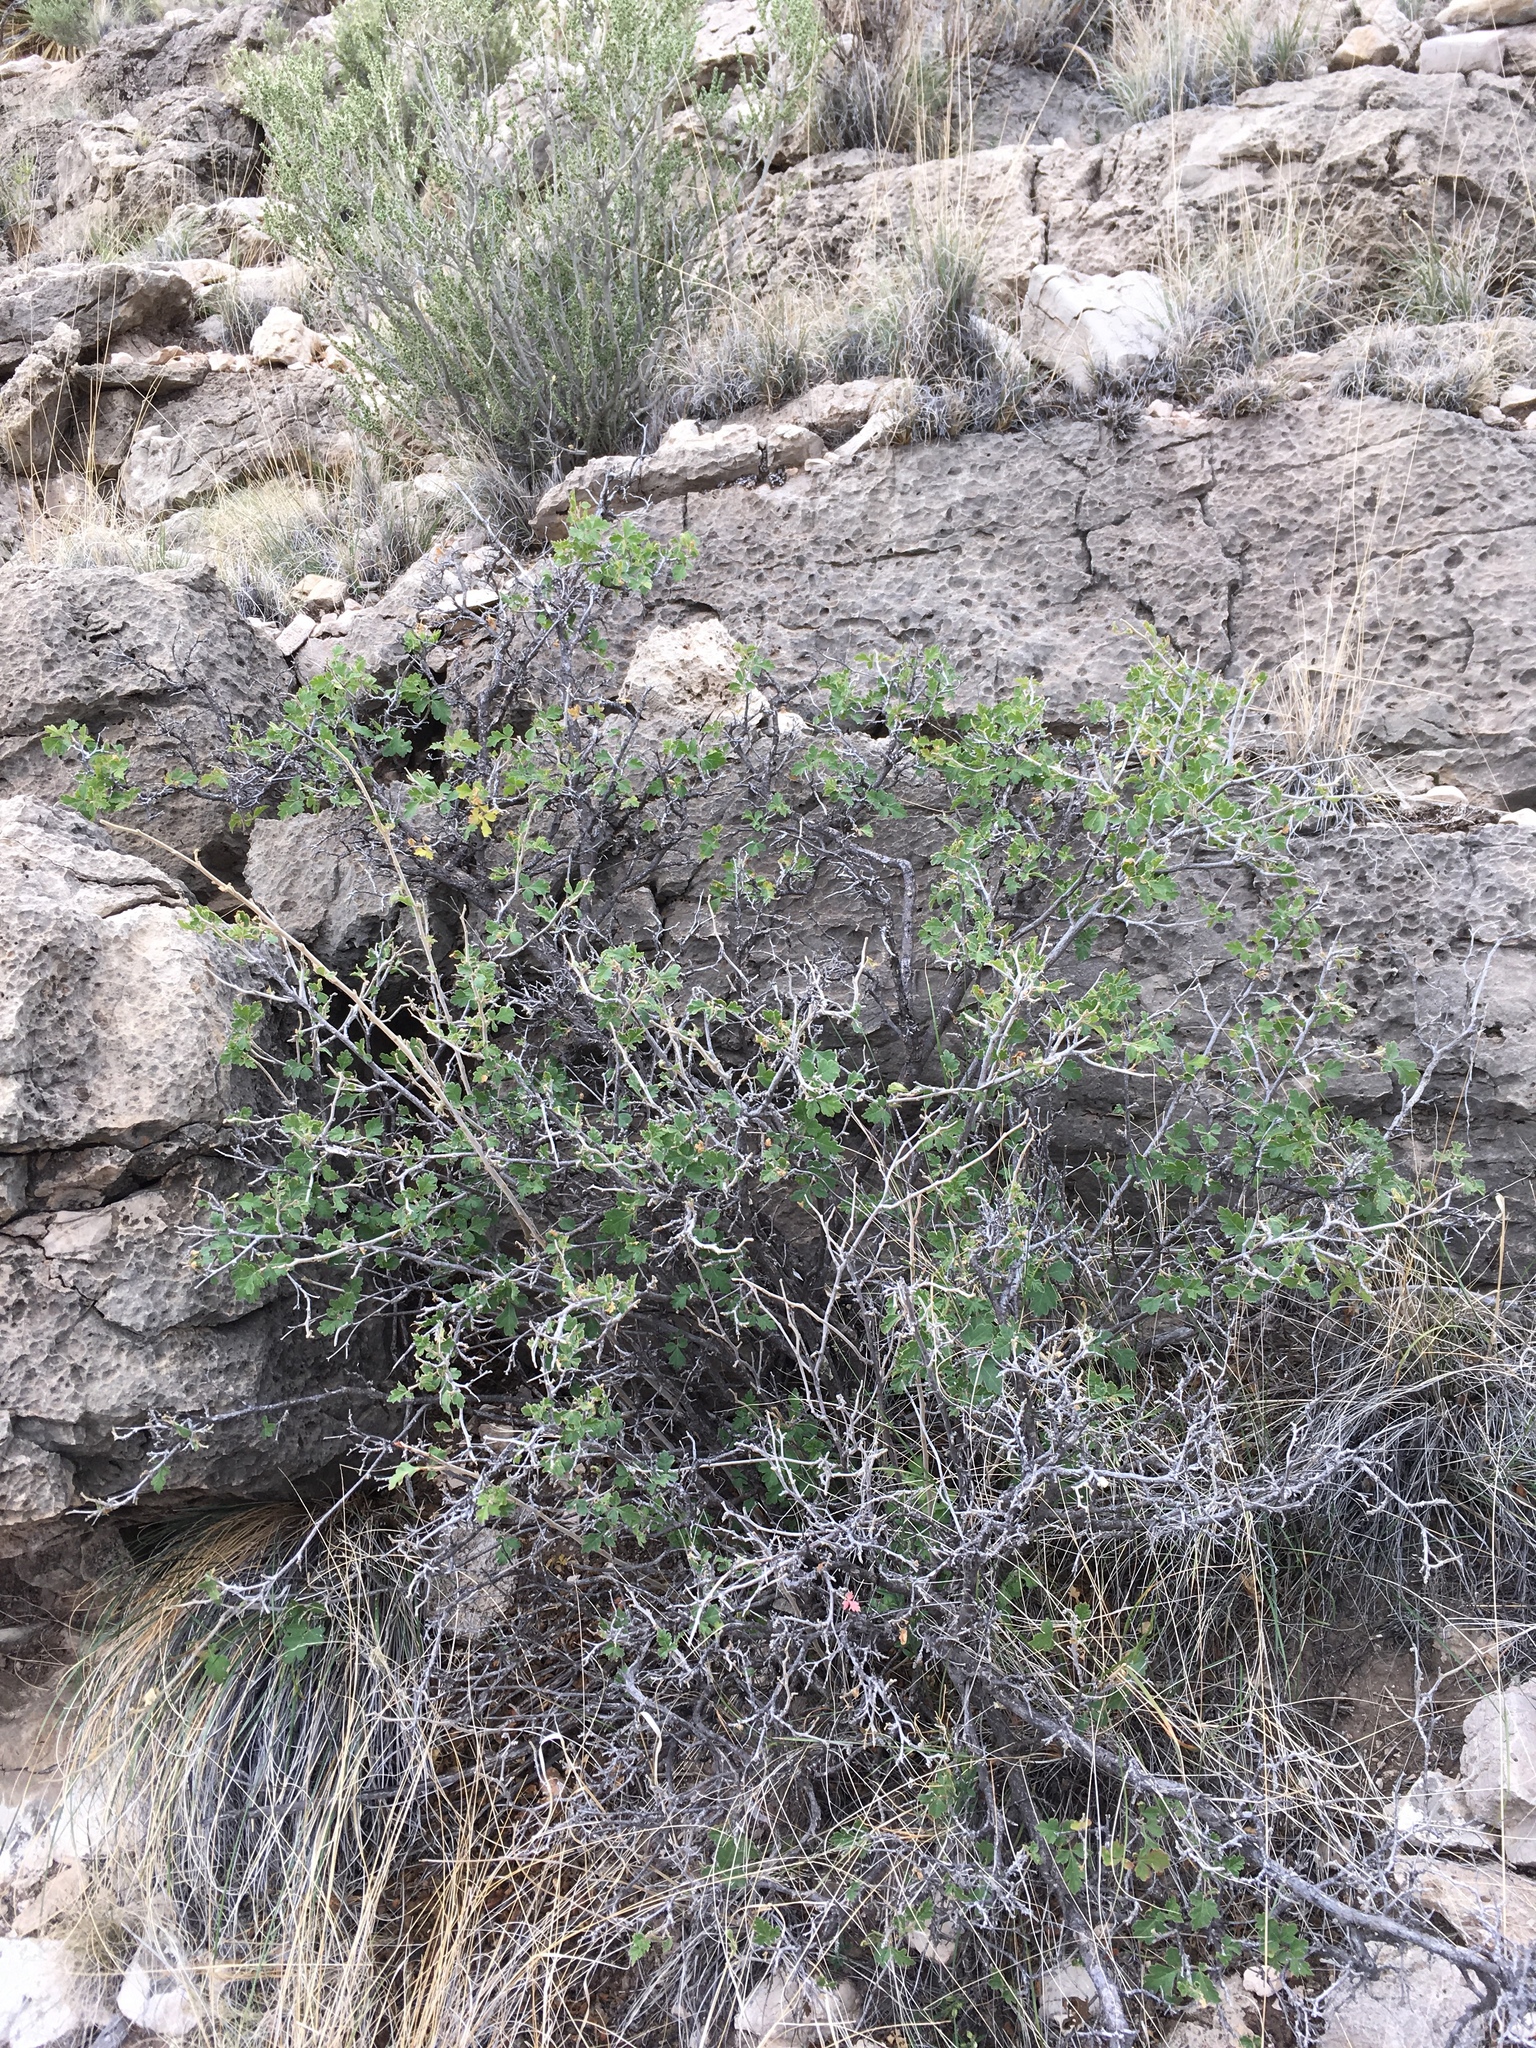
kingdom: Plantae
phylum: Tracheophyta
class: Magnoliopsida
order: Sapindales
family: Anacardiaceae
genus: Rhus
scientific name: Rhus aromatica
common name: Aromatic sumac
